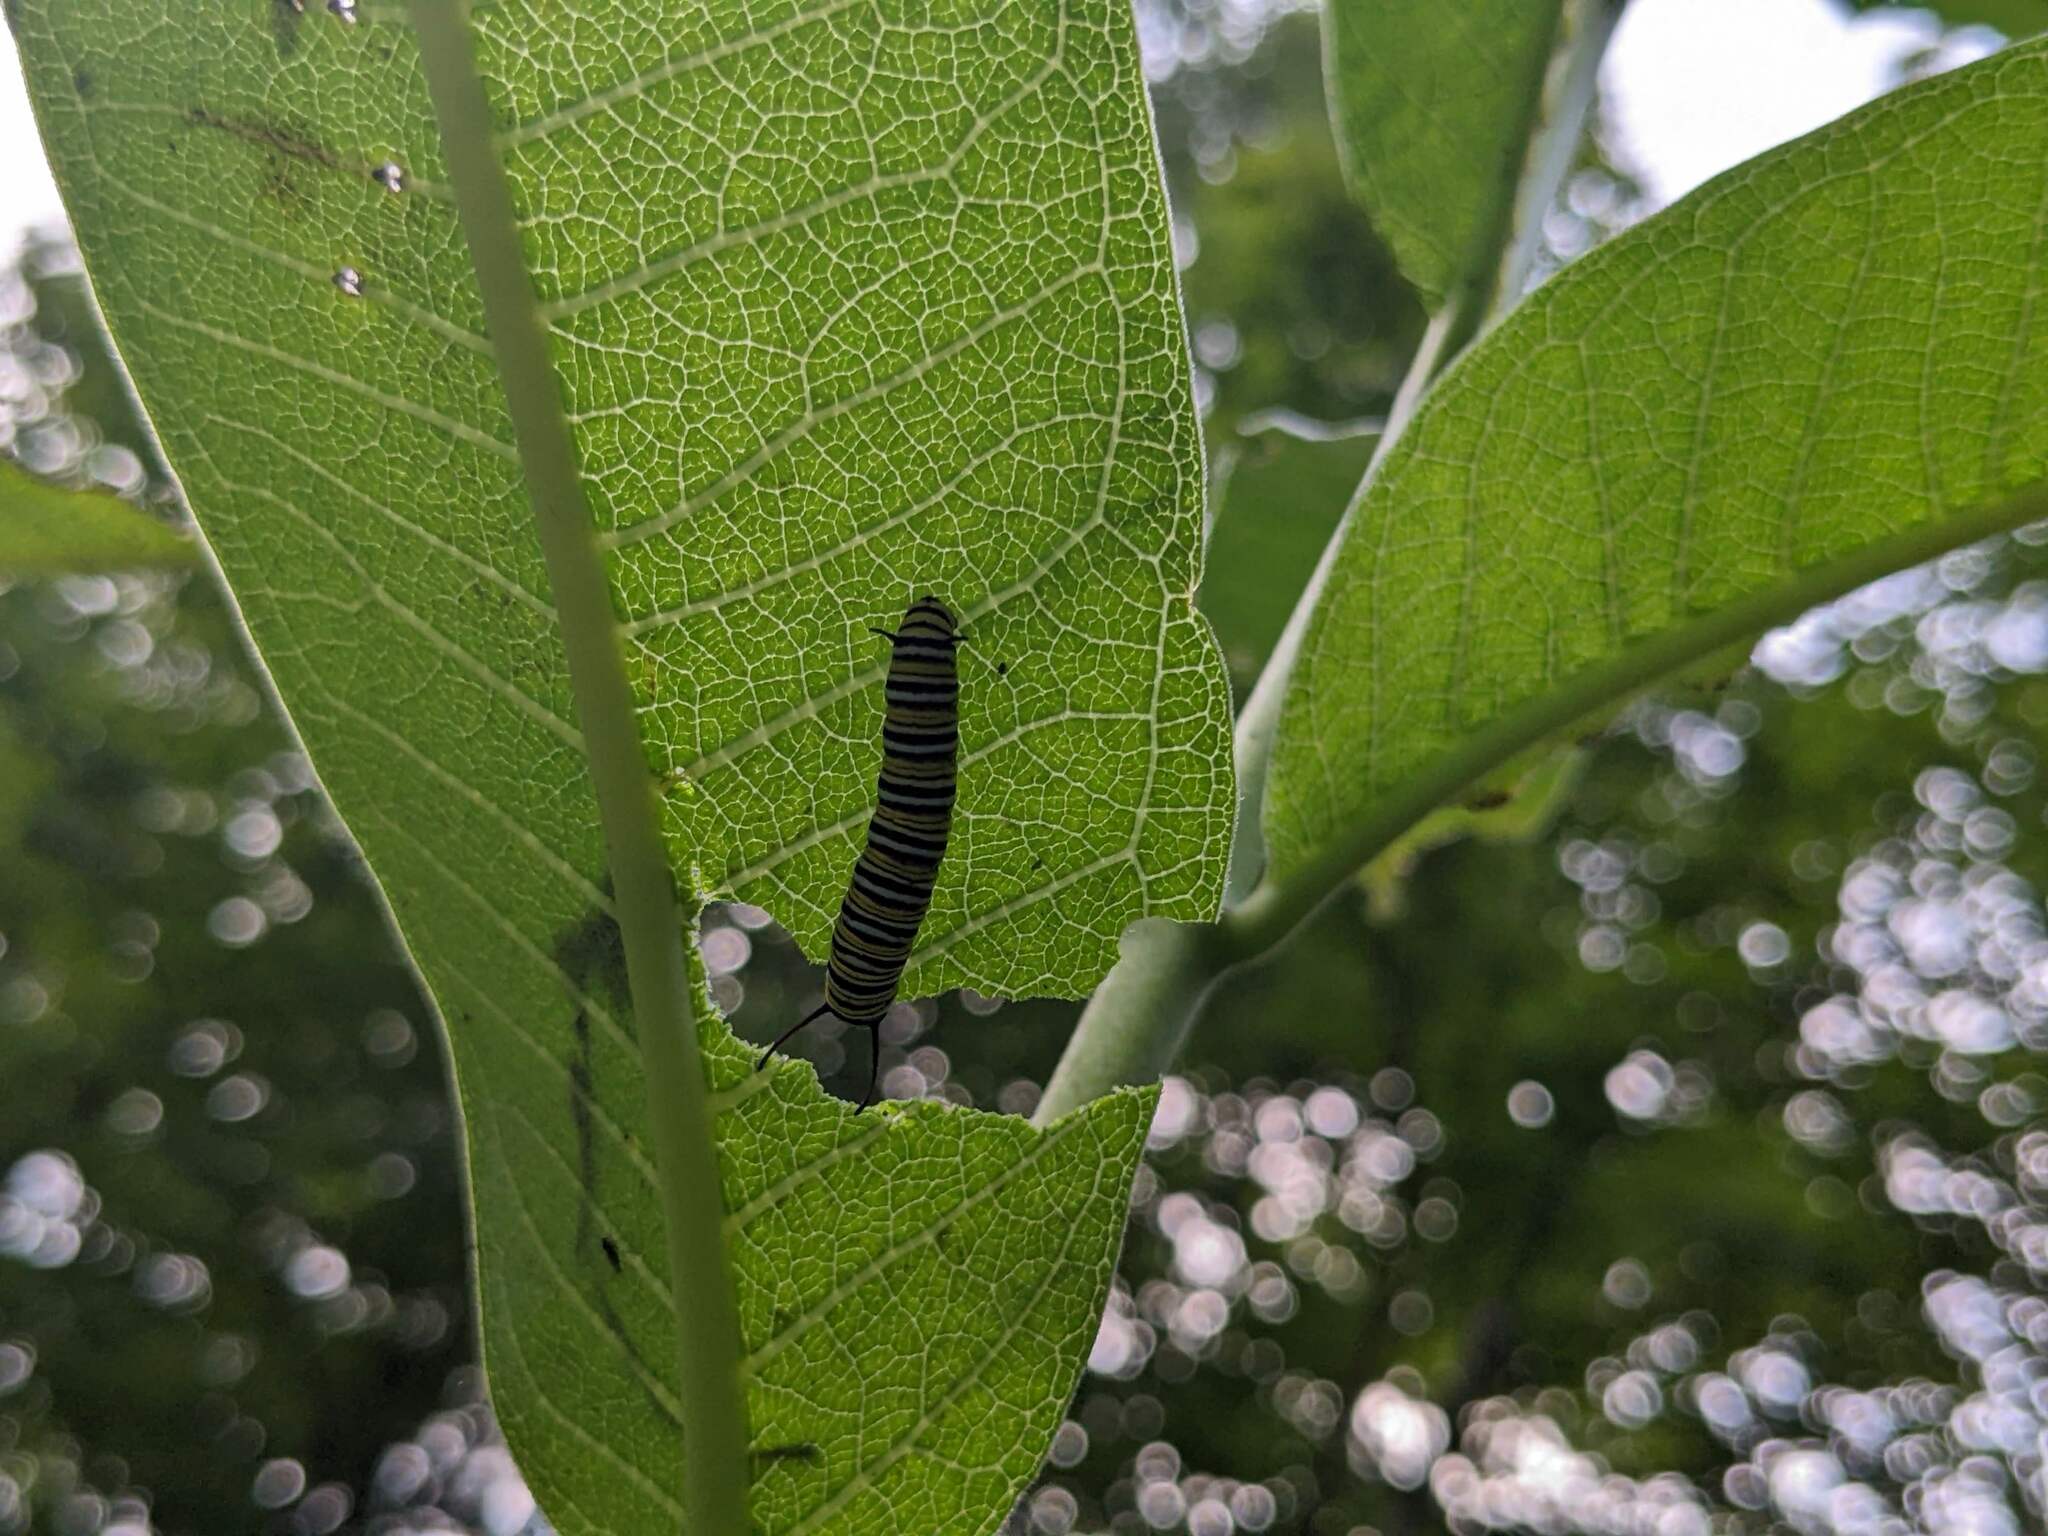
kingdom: Animalia
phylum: Arthropoda
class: Insecta
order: Lepidoptera
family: Nymphalidae
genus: Danaus
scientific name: Danaus plexippus
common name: Monarch
